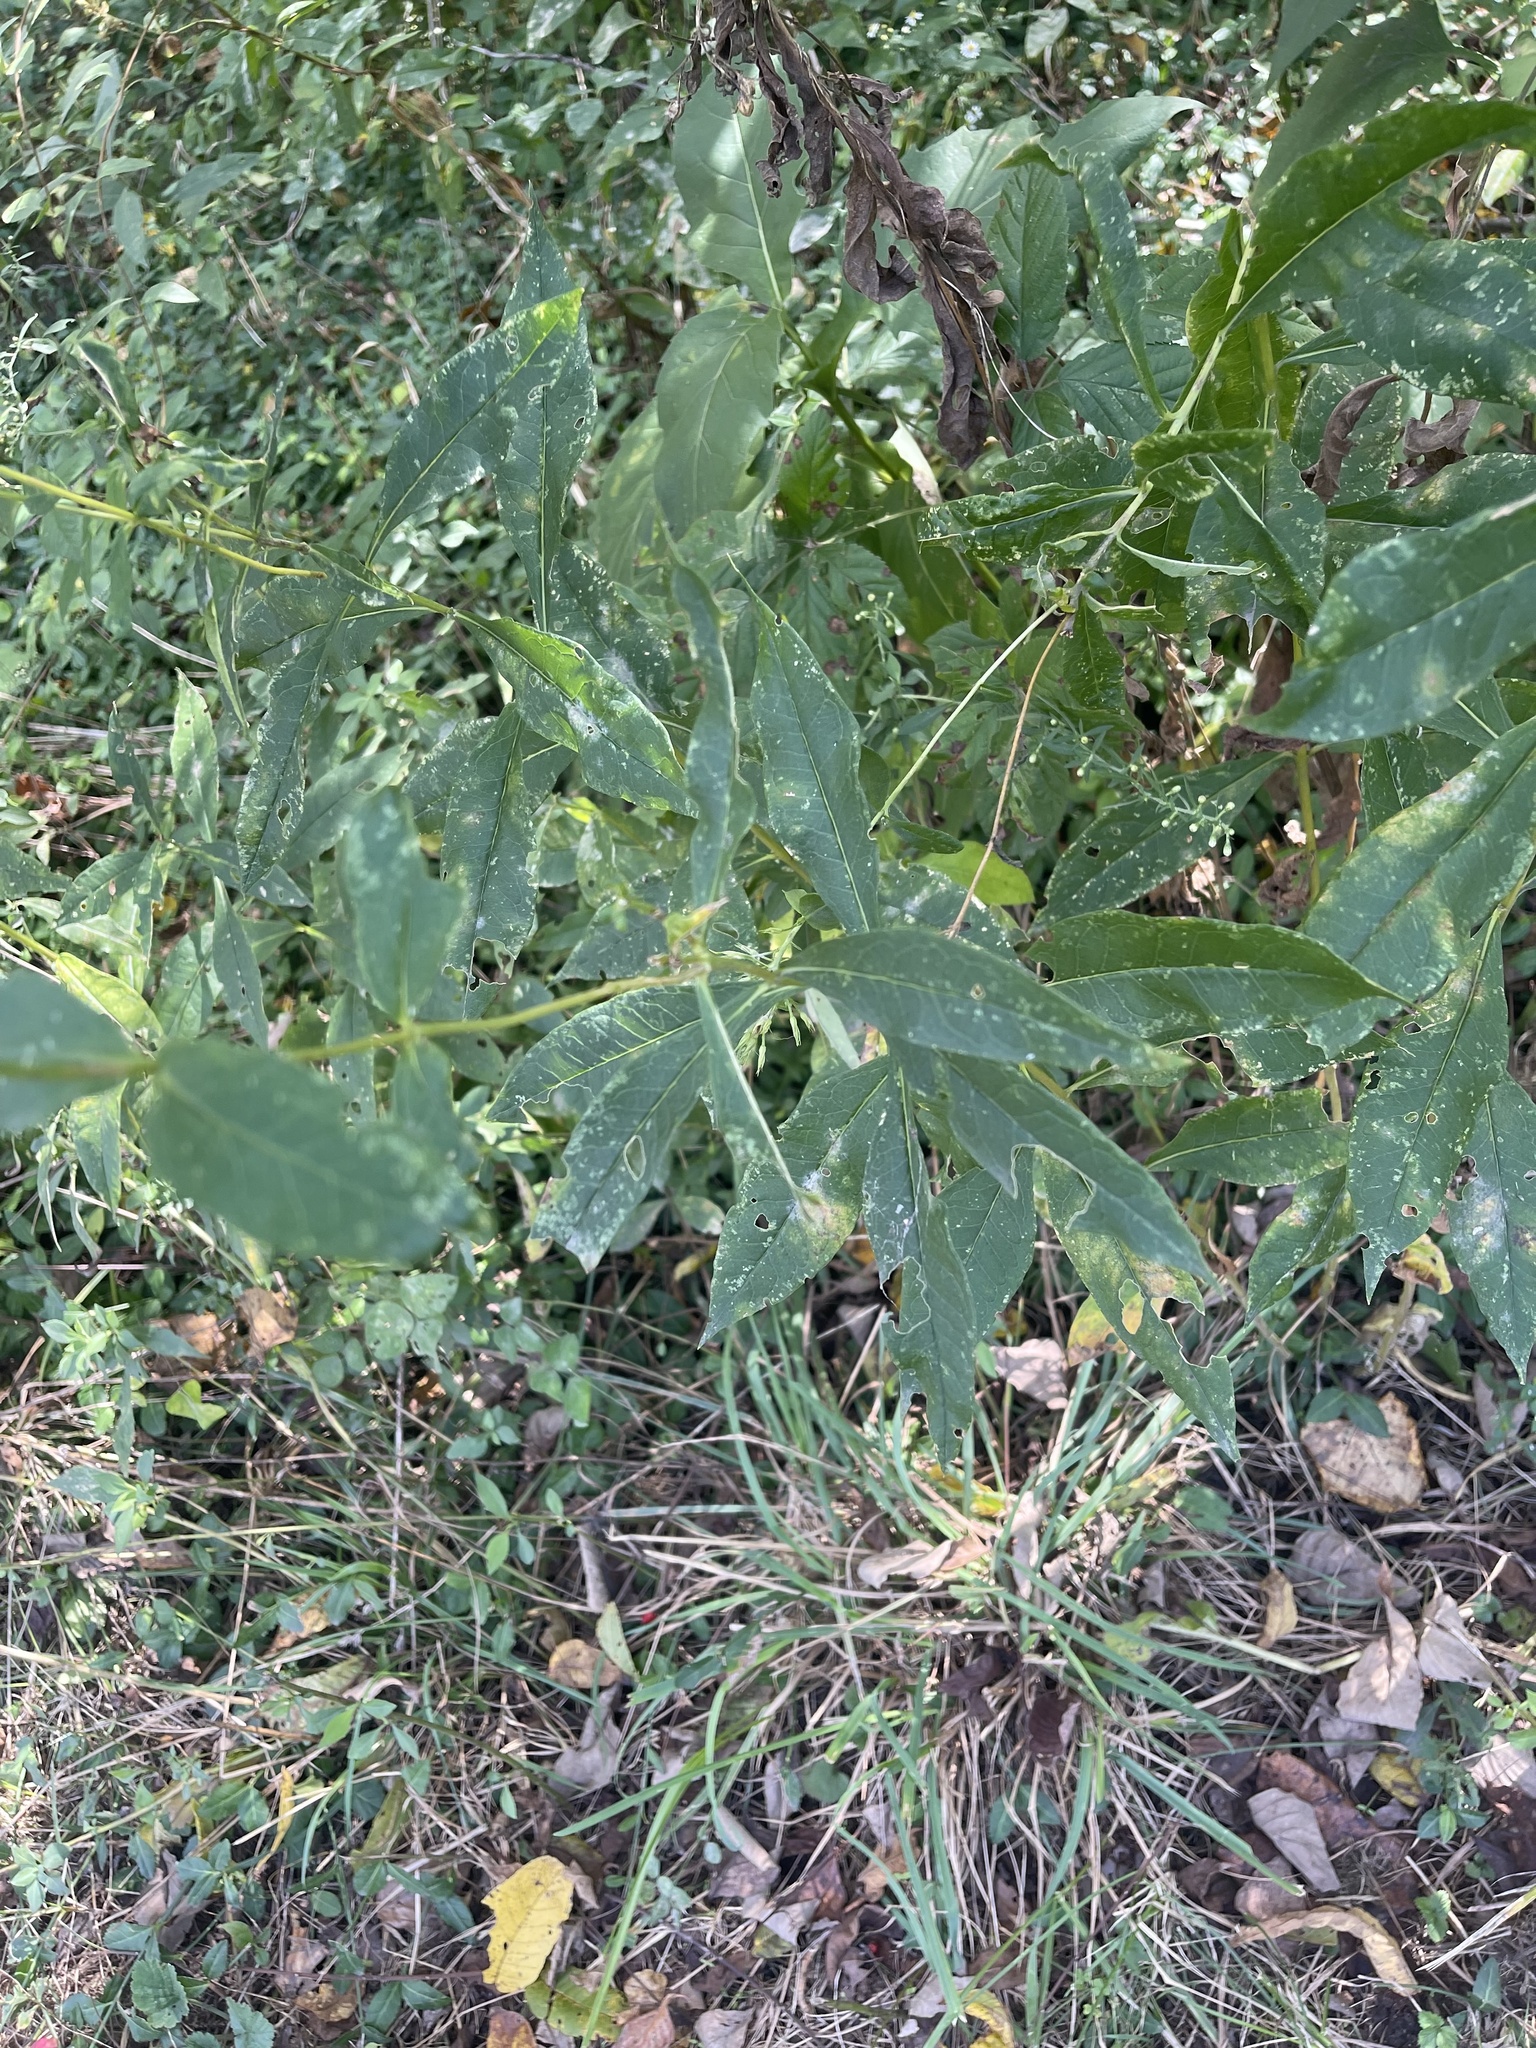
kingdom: Plantae
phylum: Tracheophyta
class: Magnoliopsida
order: Ericales
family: Polemoniaceae
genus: Phlox
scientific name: Phlox paniculata
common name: Fall phlox
